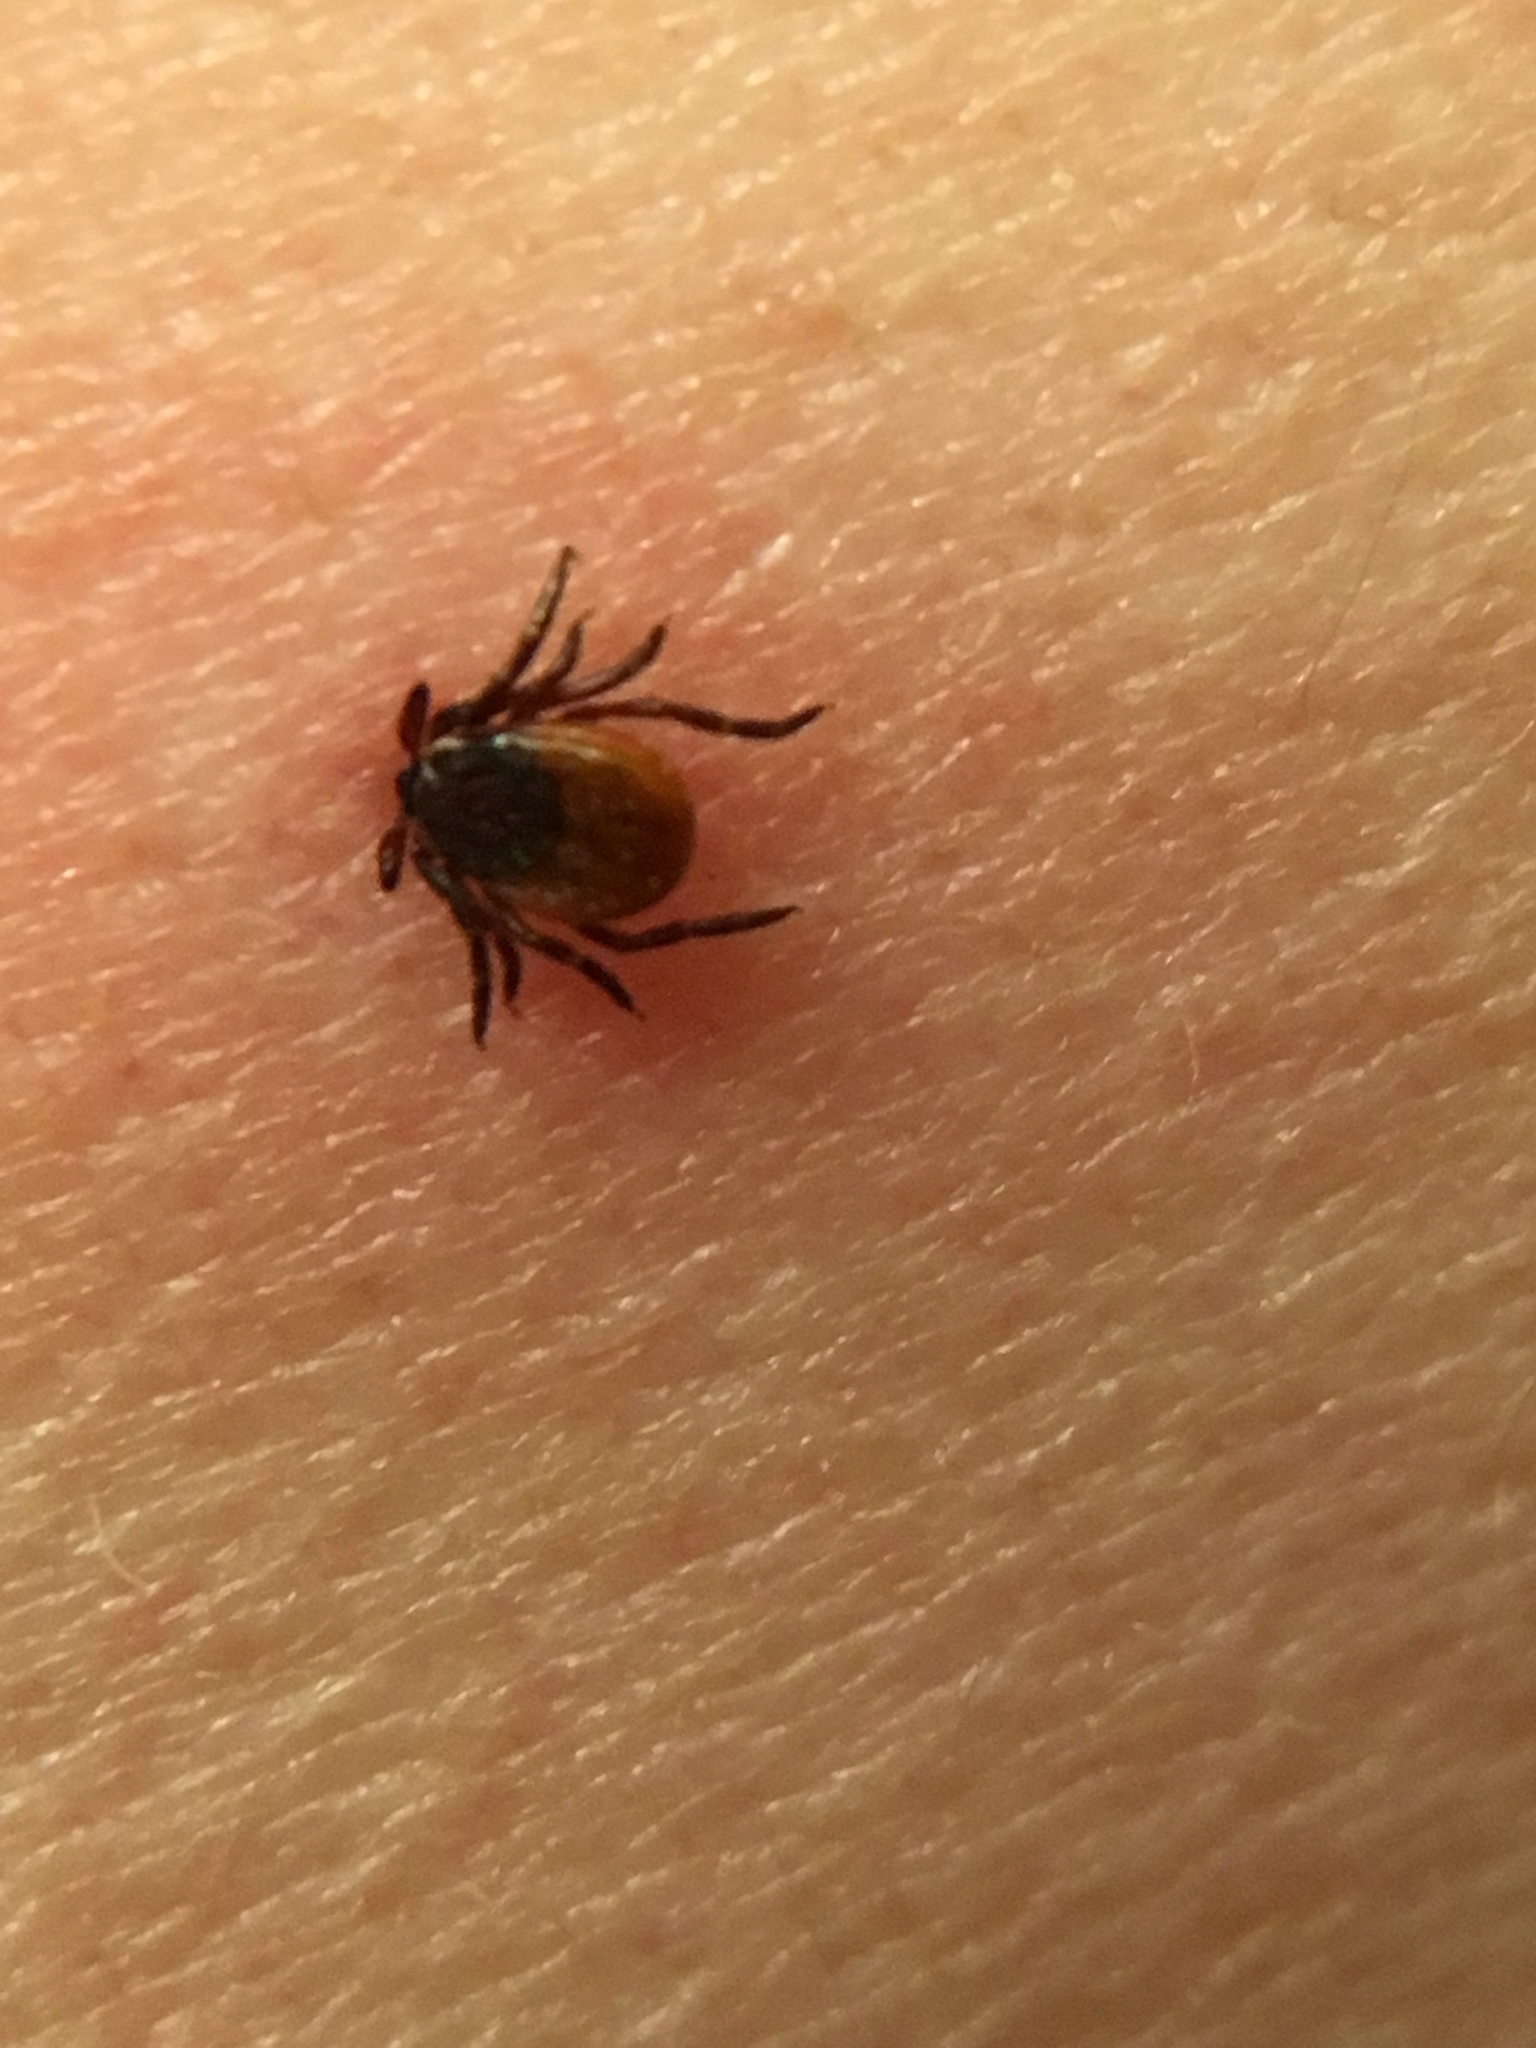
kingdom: Animalia
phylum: Arthropoda
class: Arachnida
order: Ixodida
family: Ixodidae
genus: Ixodes
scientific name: Ixodes scapularis
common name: Black legged tick
